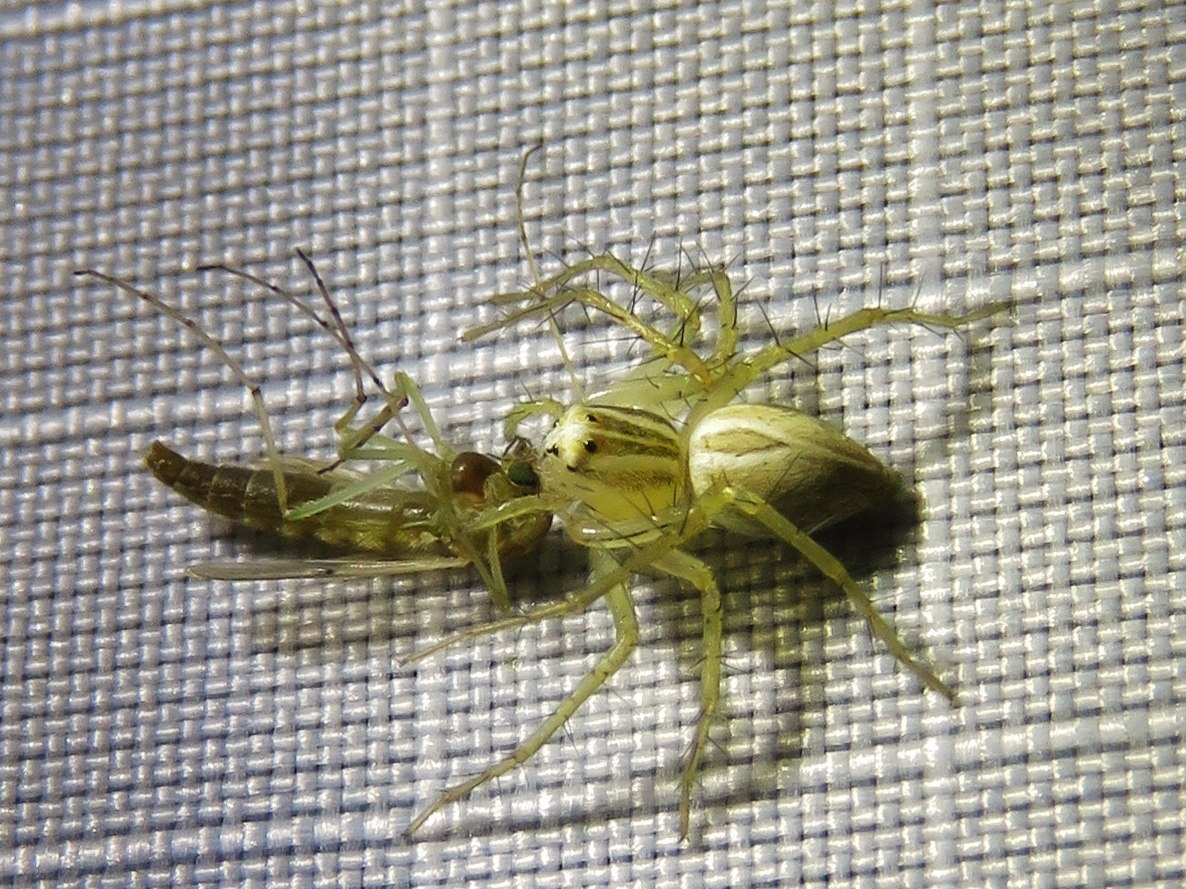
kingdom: Animalia
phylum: Arthropoda
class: Arachnida
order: Araneae
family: Oxyopidae
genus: Oxyopes
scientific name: Oxyopes salticus
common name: Lynx spiders
